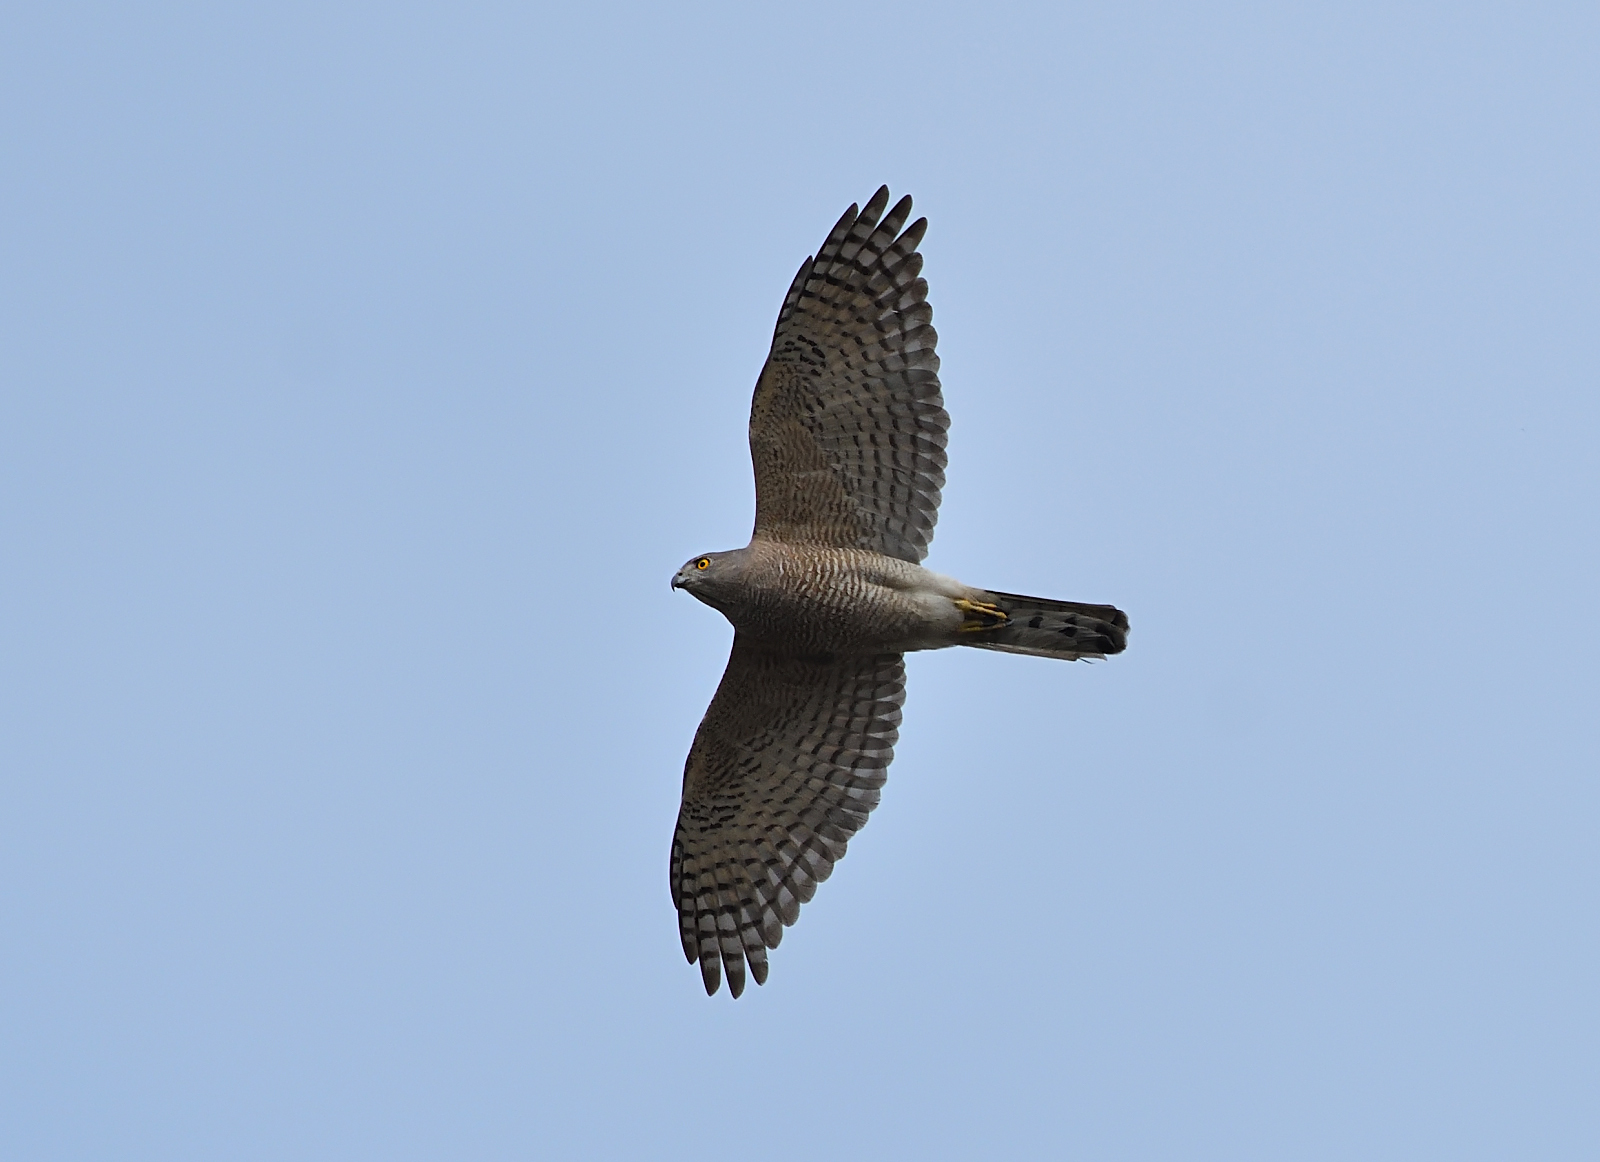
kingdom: Animalia
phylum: Chordata
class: Aves
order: Accipitriformes
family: Accipitridae
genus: Accipiter
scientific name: Accipiter badius
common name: Shikra
